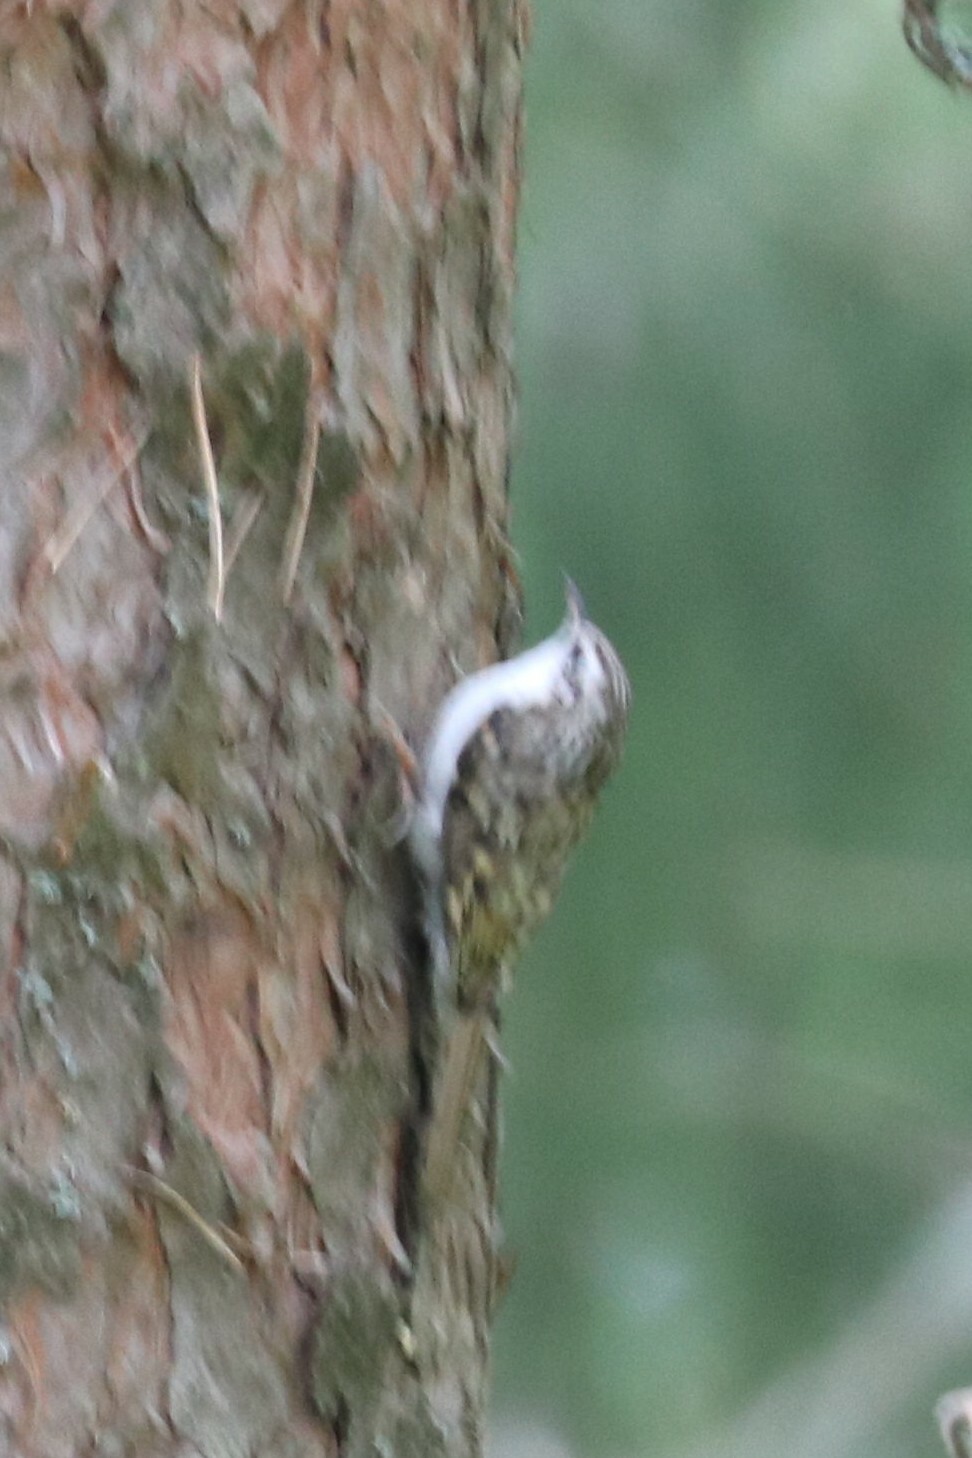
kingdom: Animalia
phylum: Chordata
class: Aves
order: Passeriformes
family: Certhiidae
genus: Certhia
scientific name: Certhia familiaris
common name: Eurasian treecreeper
